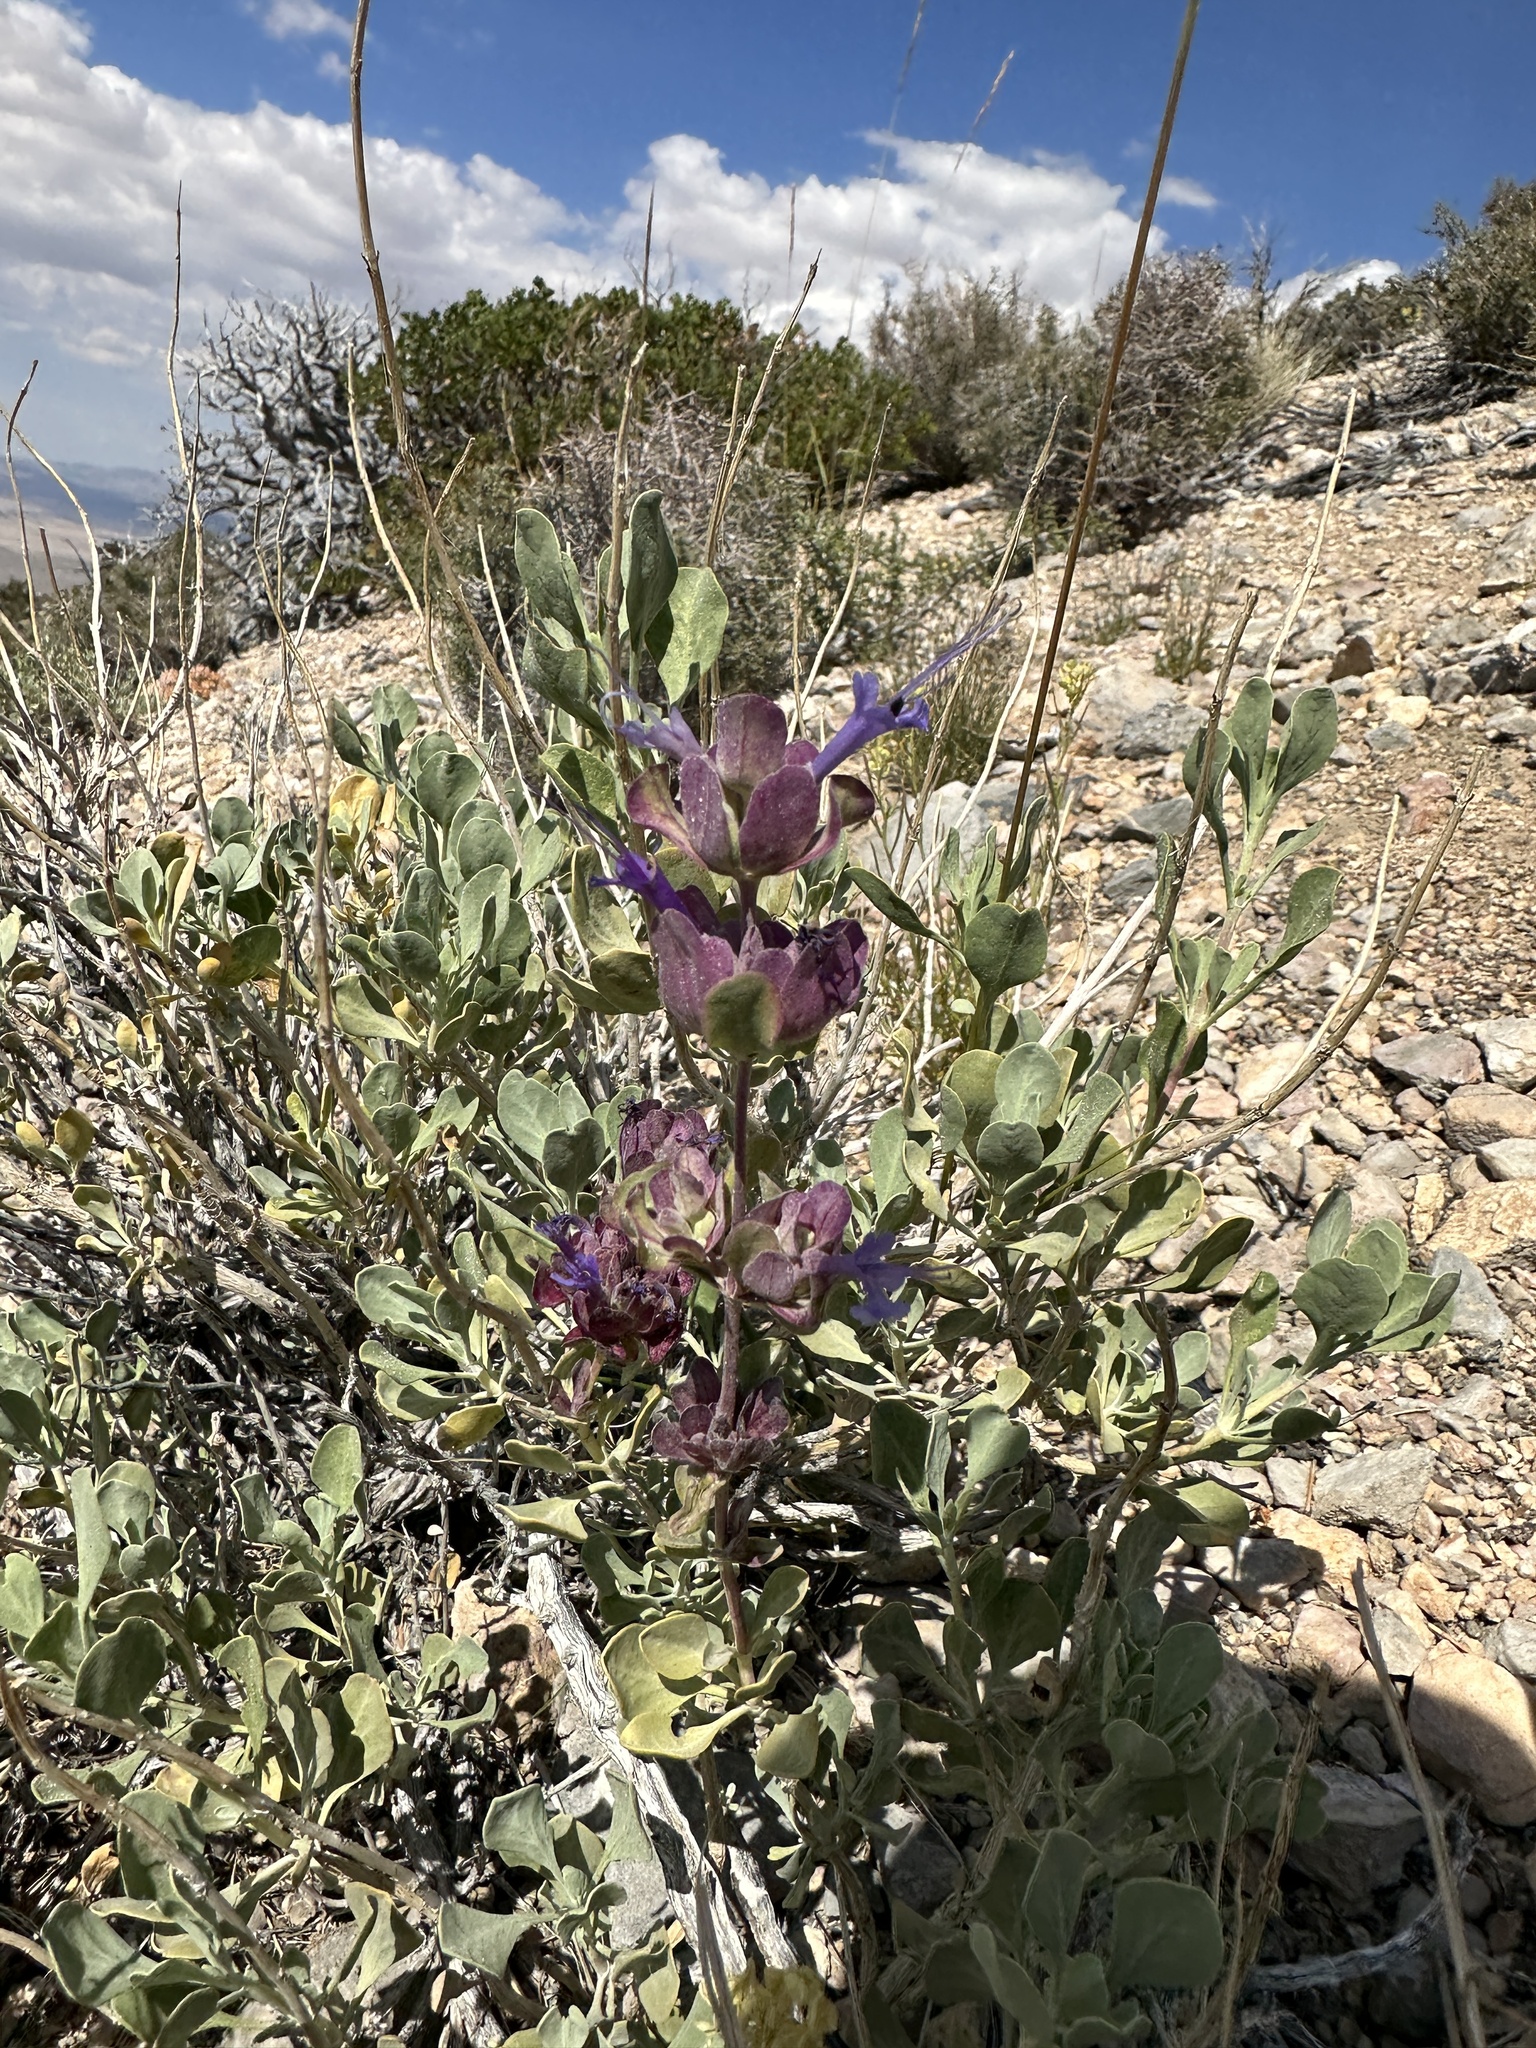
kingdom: Plantae
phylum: Tracheophyta
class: Magnoliopsida
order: Lamiales
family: Lamiaceae
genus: Salvia
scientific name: Salvia pachyphylla
